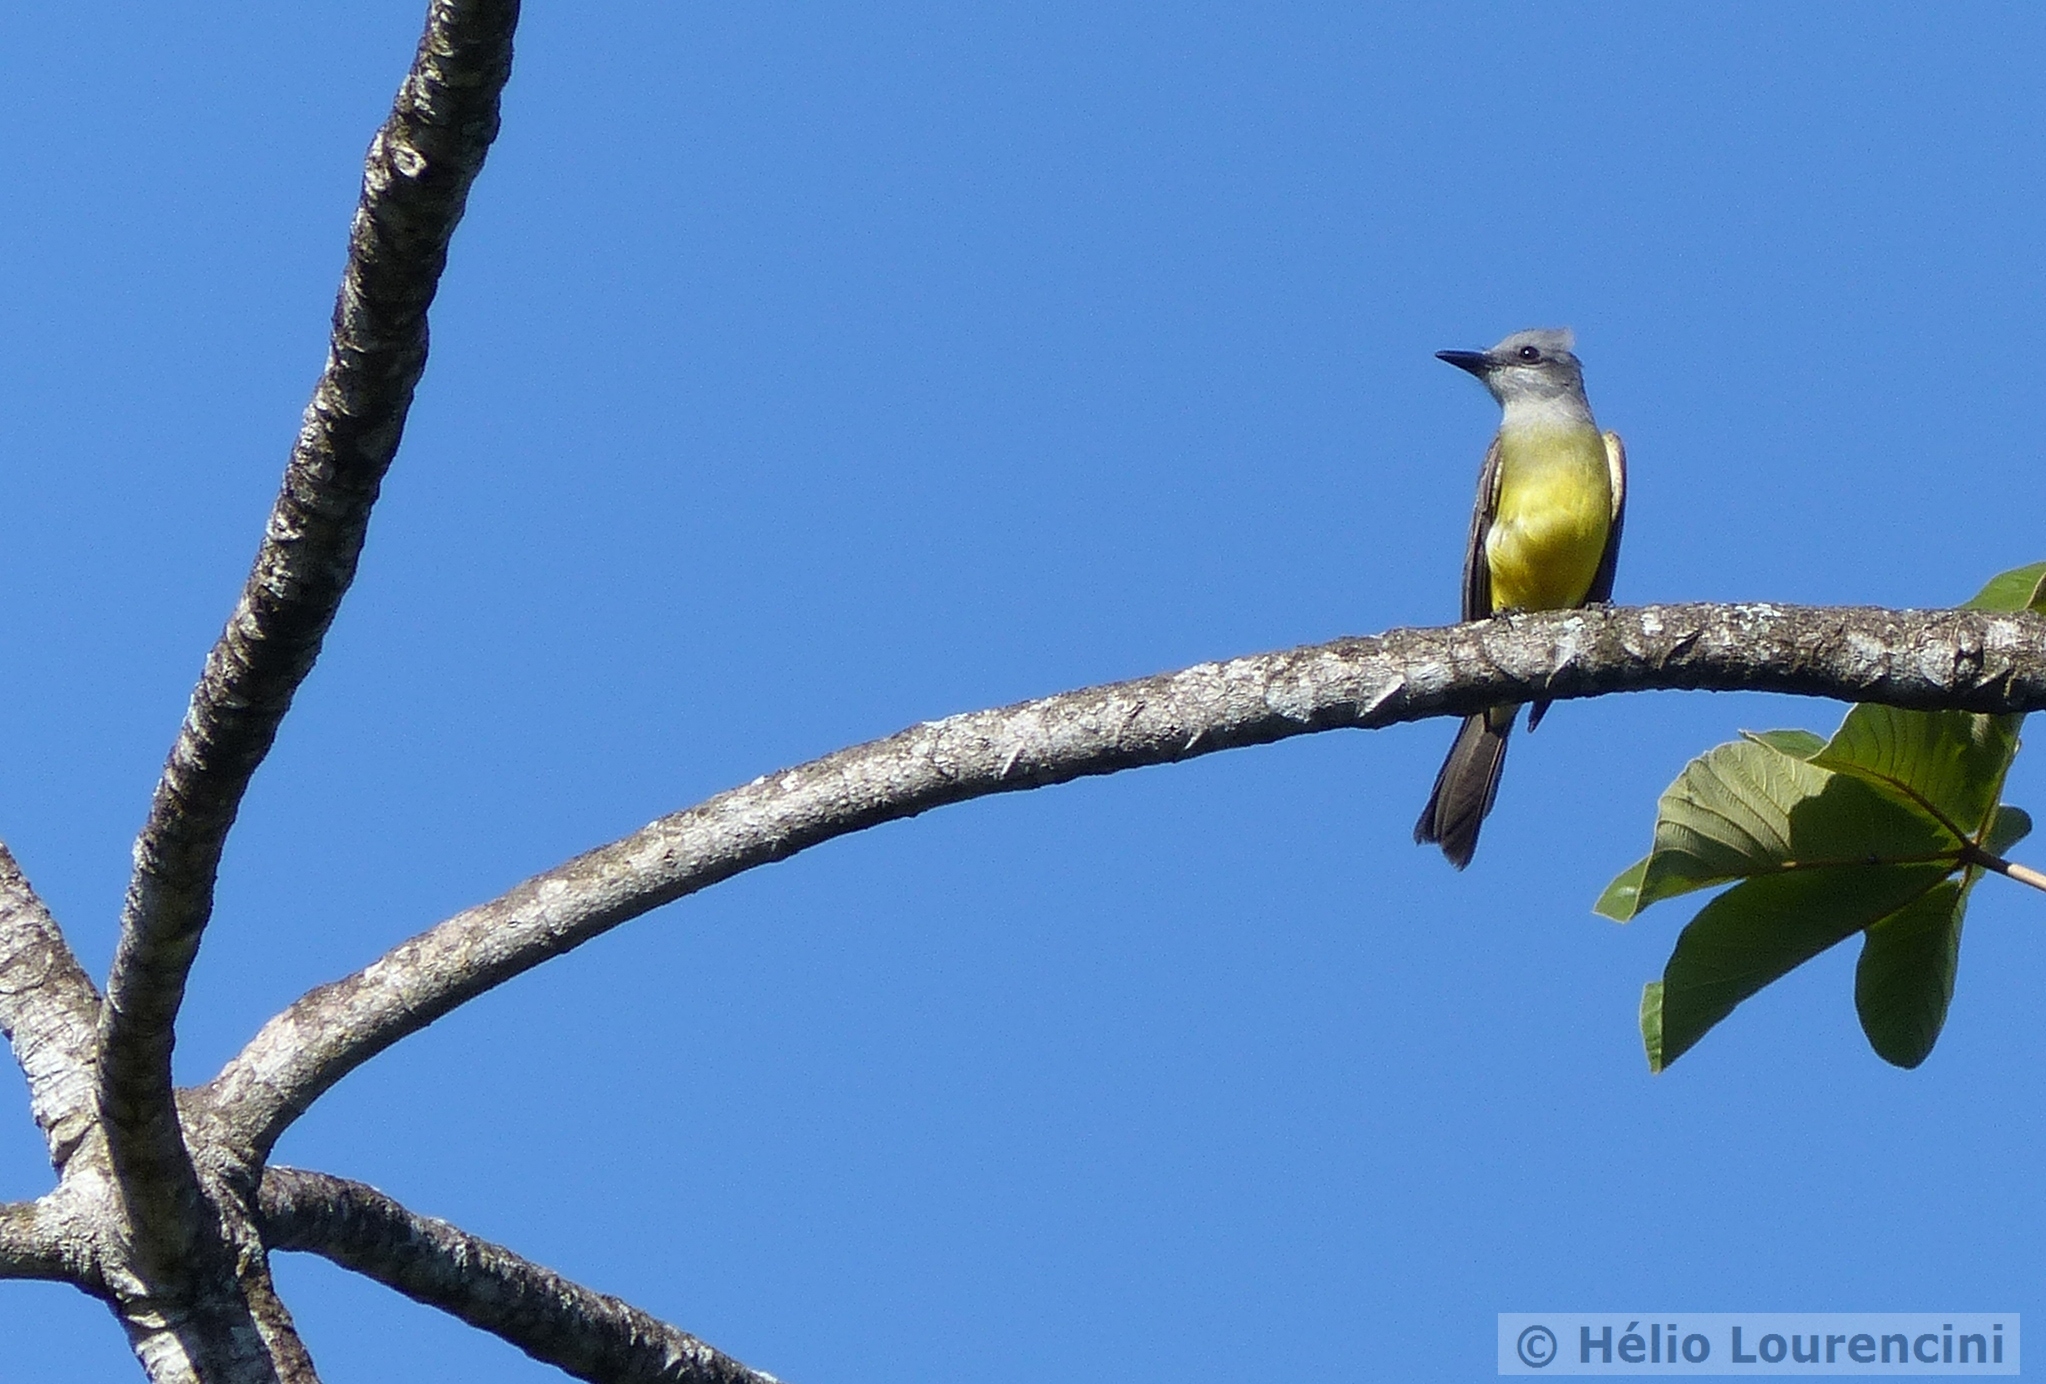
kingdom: Animalia
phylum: Chordata
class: Aves
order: Passeriformes
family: Tyrannidae
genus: Tyrannus
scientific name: Tyrannus melancholicus
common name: Tropical kingbird
